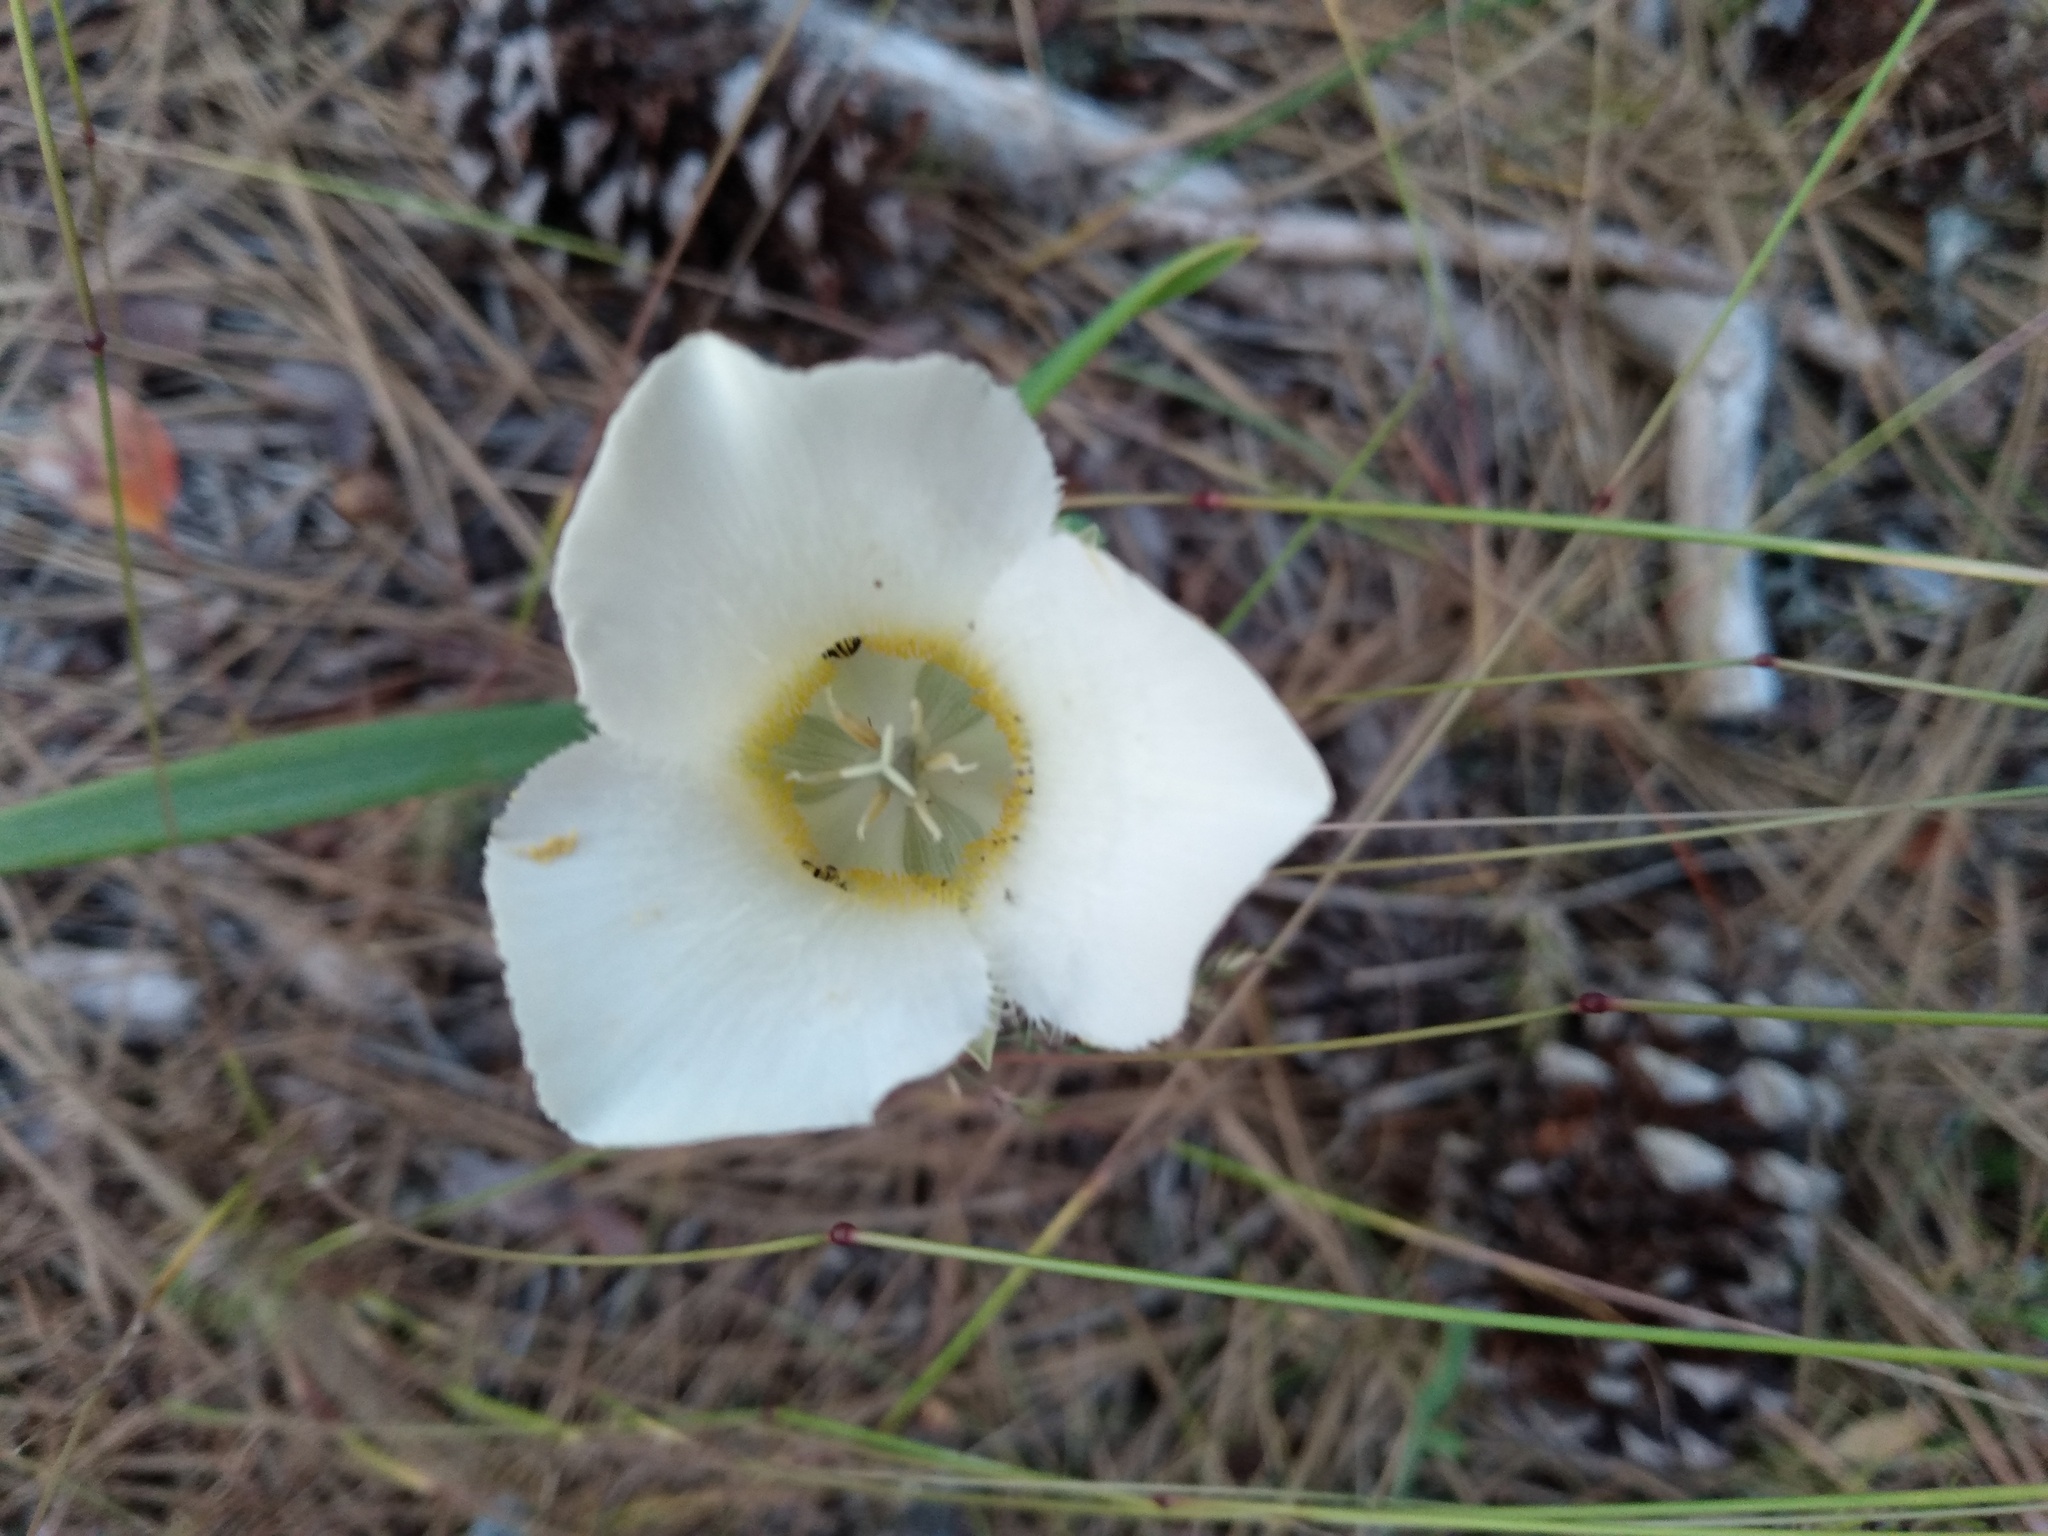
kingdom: Plantae
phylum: Tracheophyta
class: Liliopsida
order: Liliales
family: Liliaceae
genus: Calochortus
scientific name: Calochortus apiculatus
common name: Baker's mariposa lily
